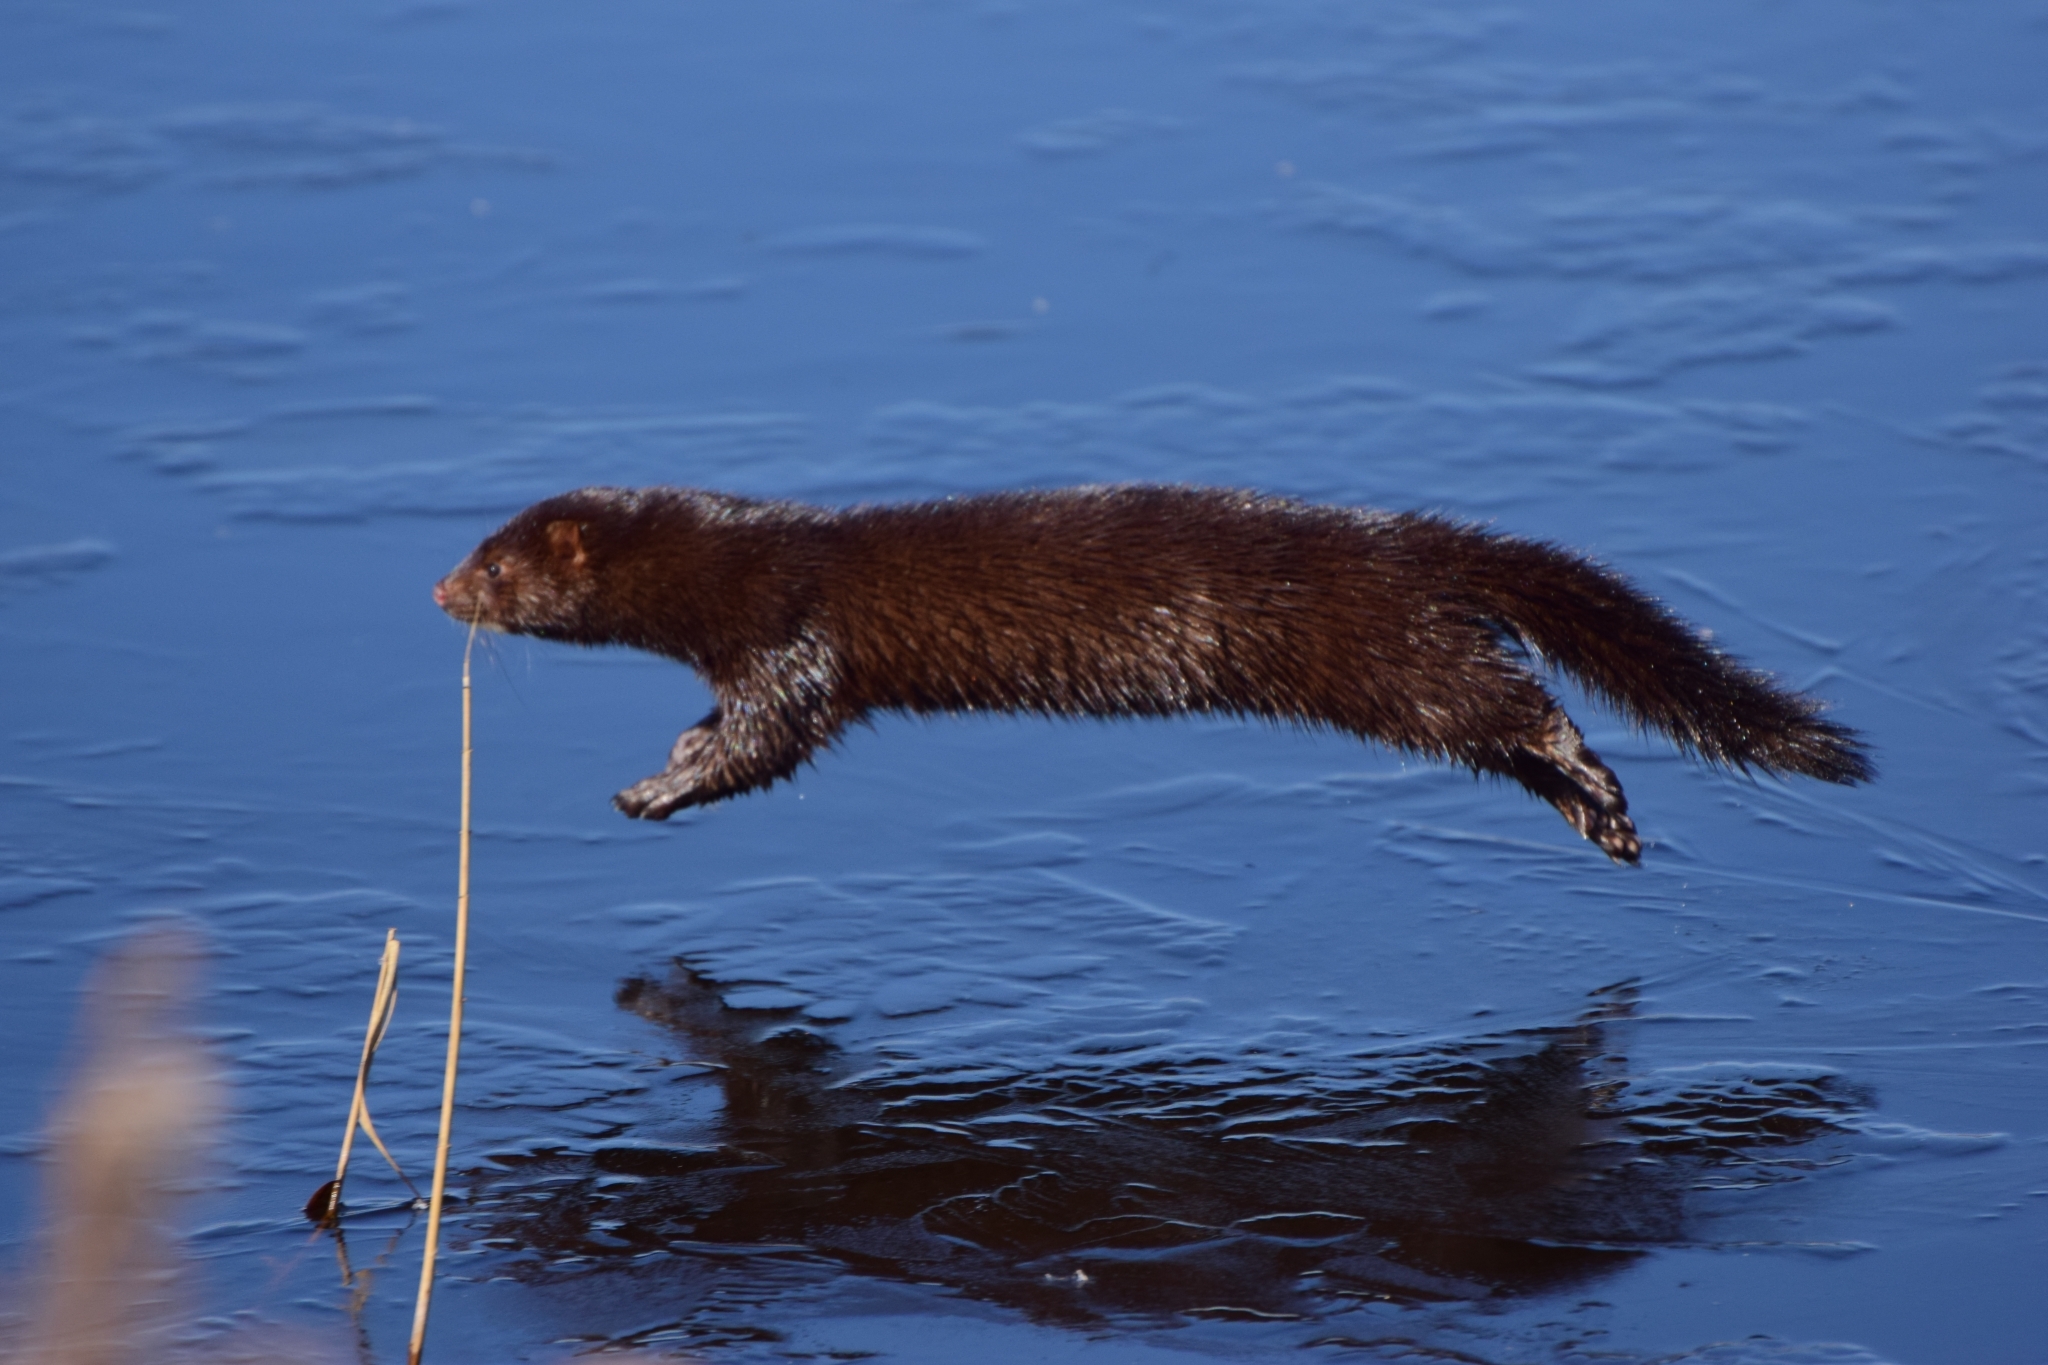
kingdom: Animalia
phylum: Chordata
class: Mammalia
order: Carnivora
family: Mustelidae
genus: Mustela
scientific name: Mustela
